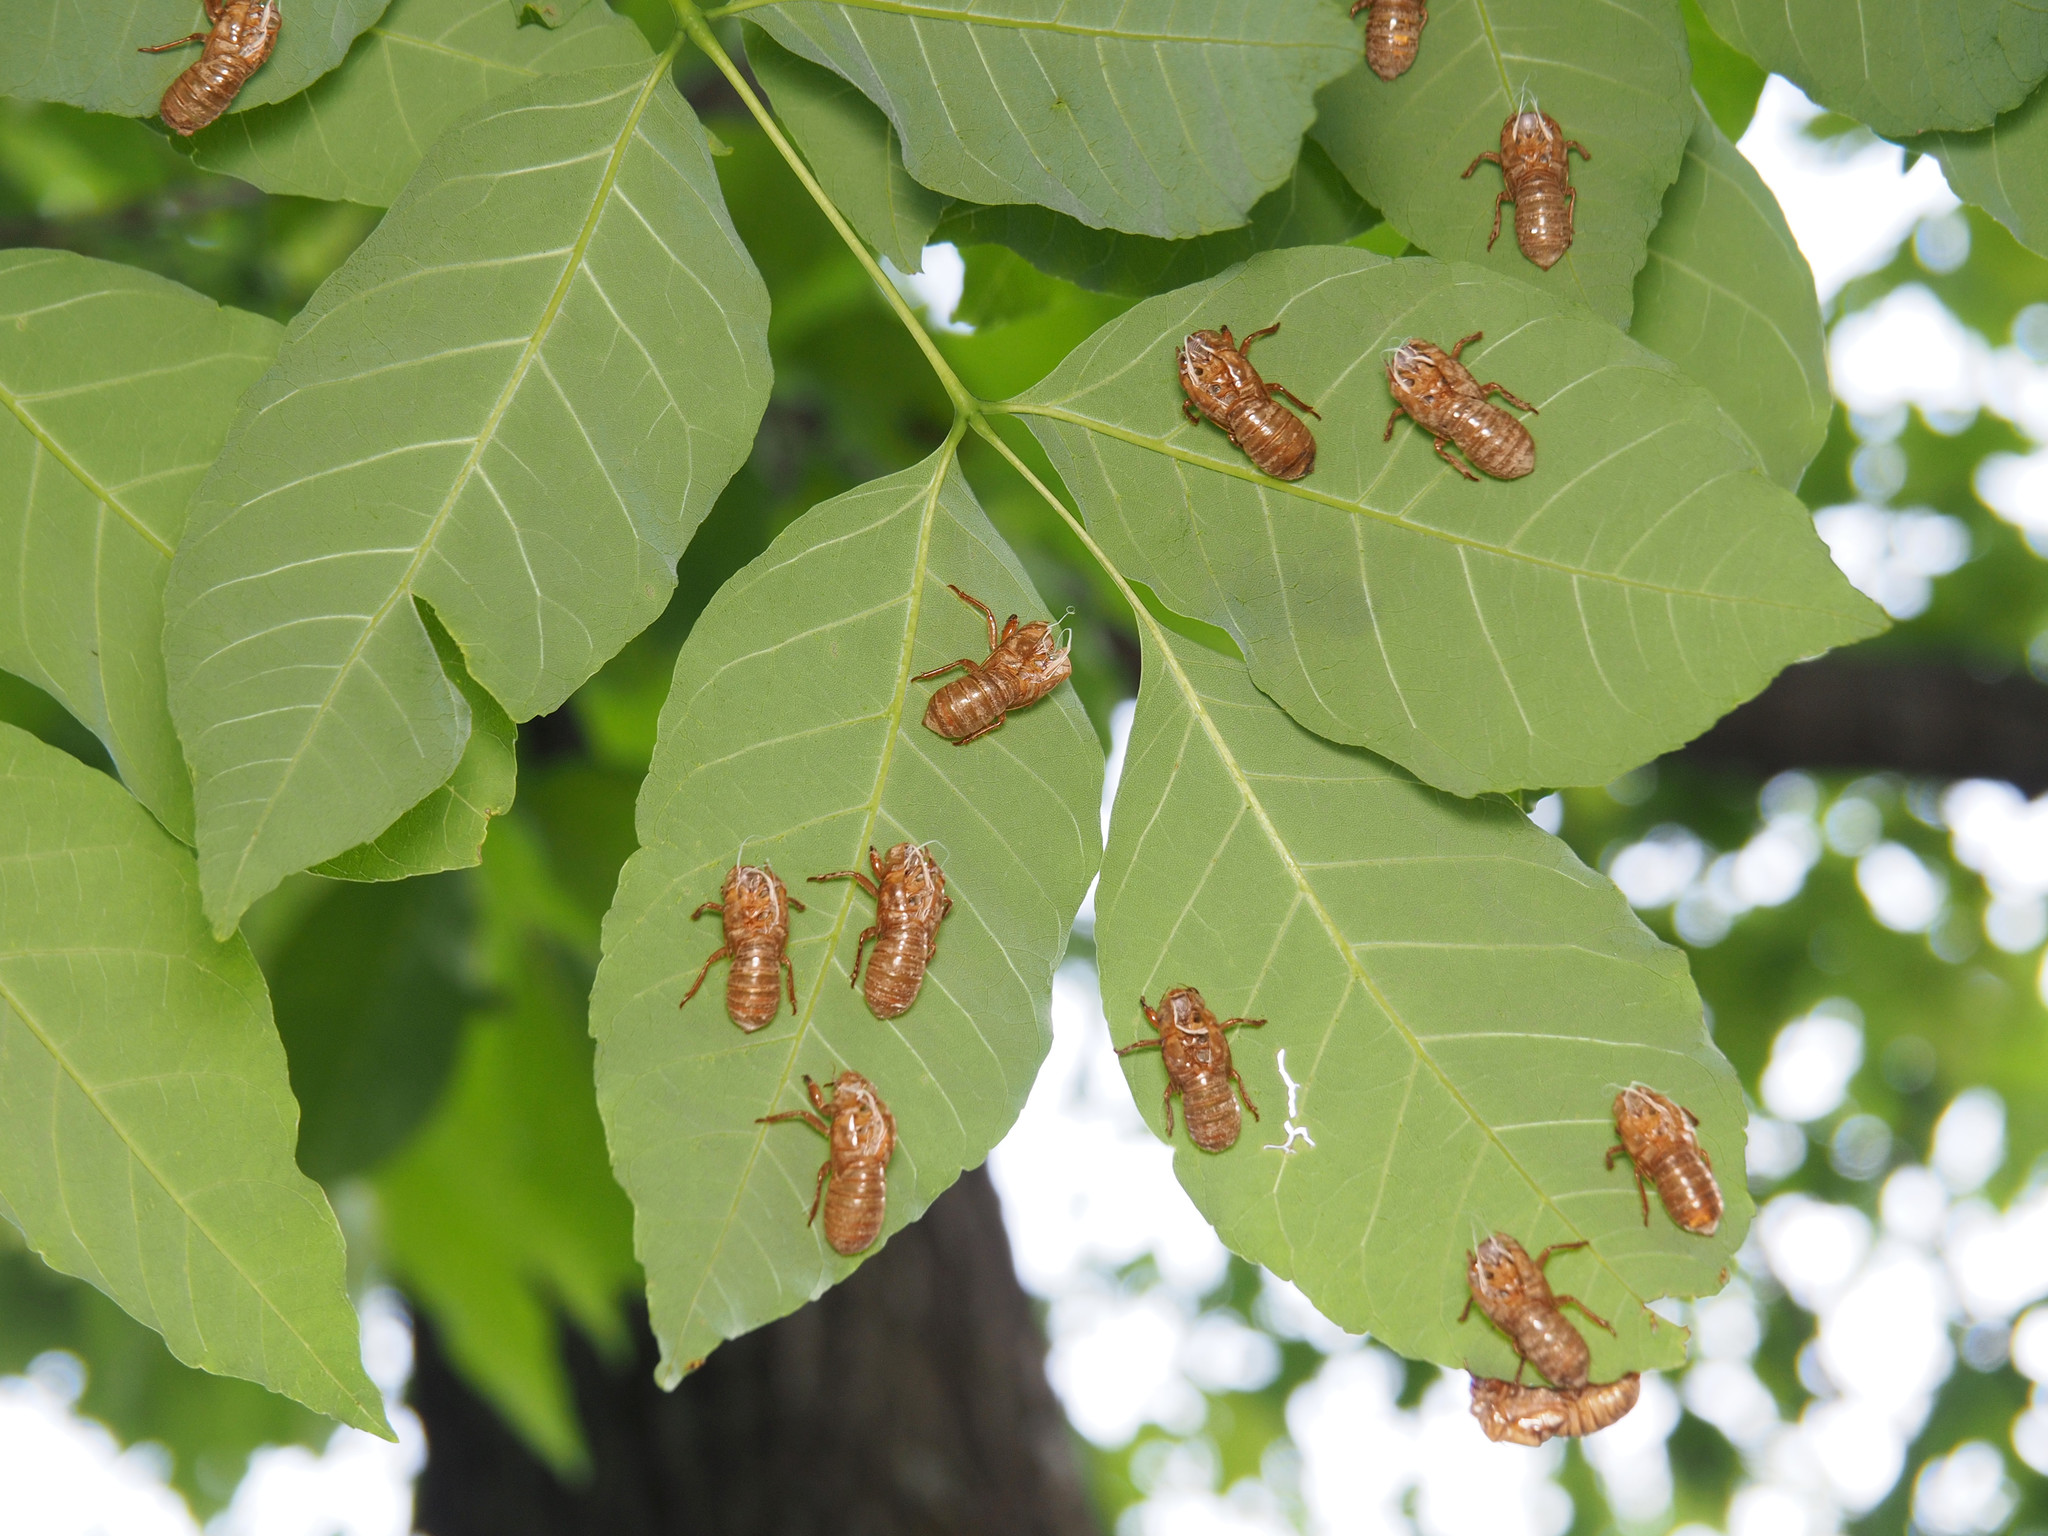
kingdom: Animalia
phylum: Arthropoda
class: Insecta
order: Hemiptera
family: Cicadidae
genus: Magicicada
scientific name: Magicicada
